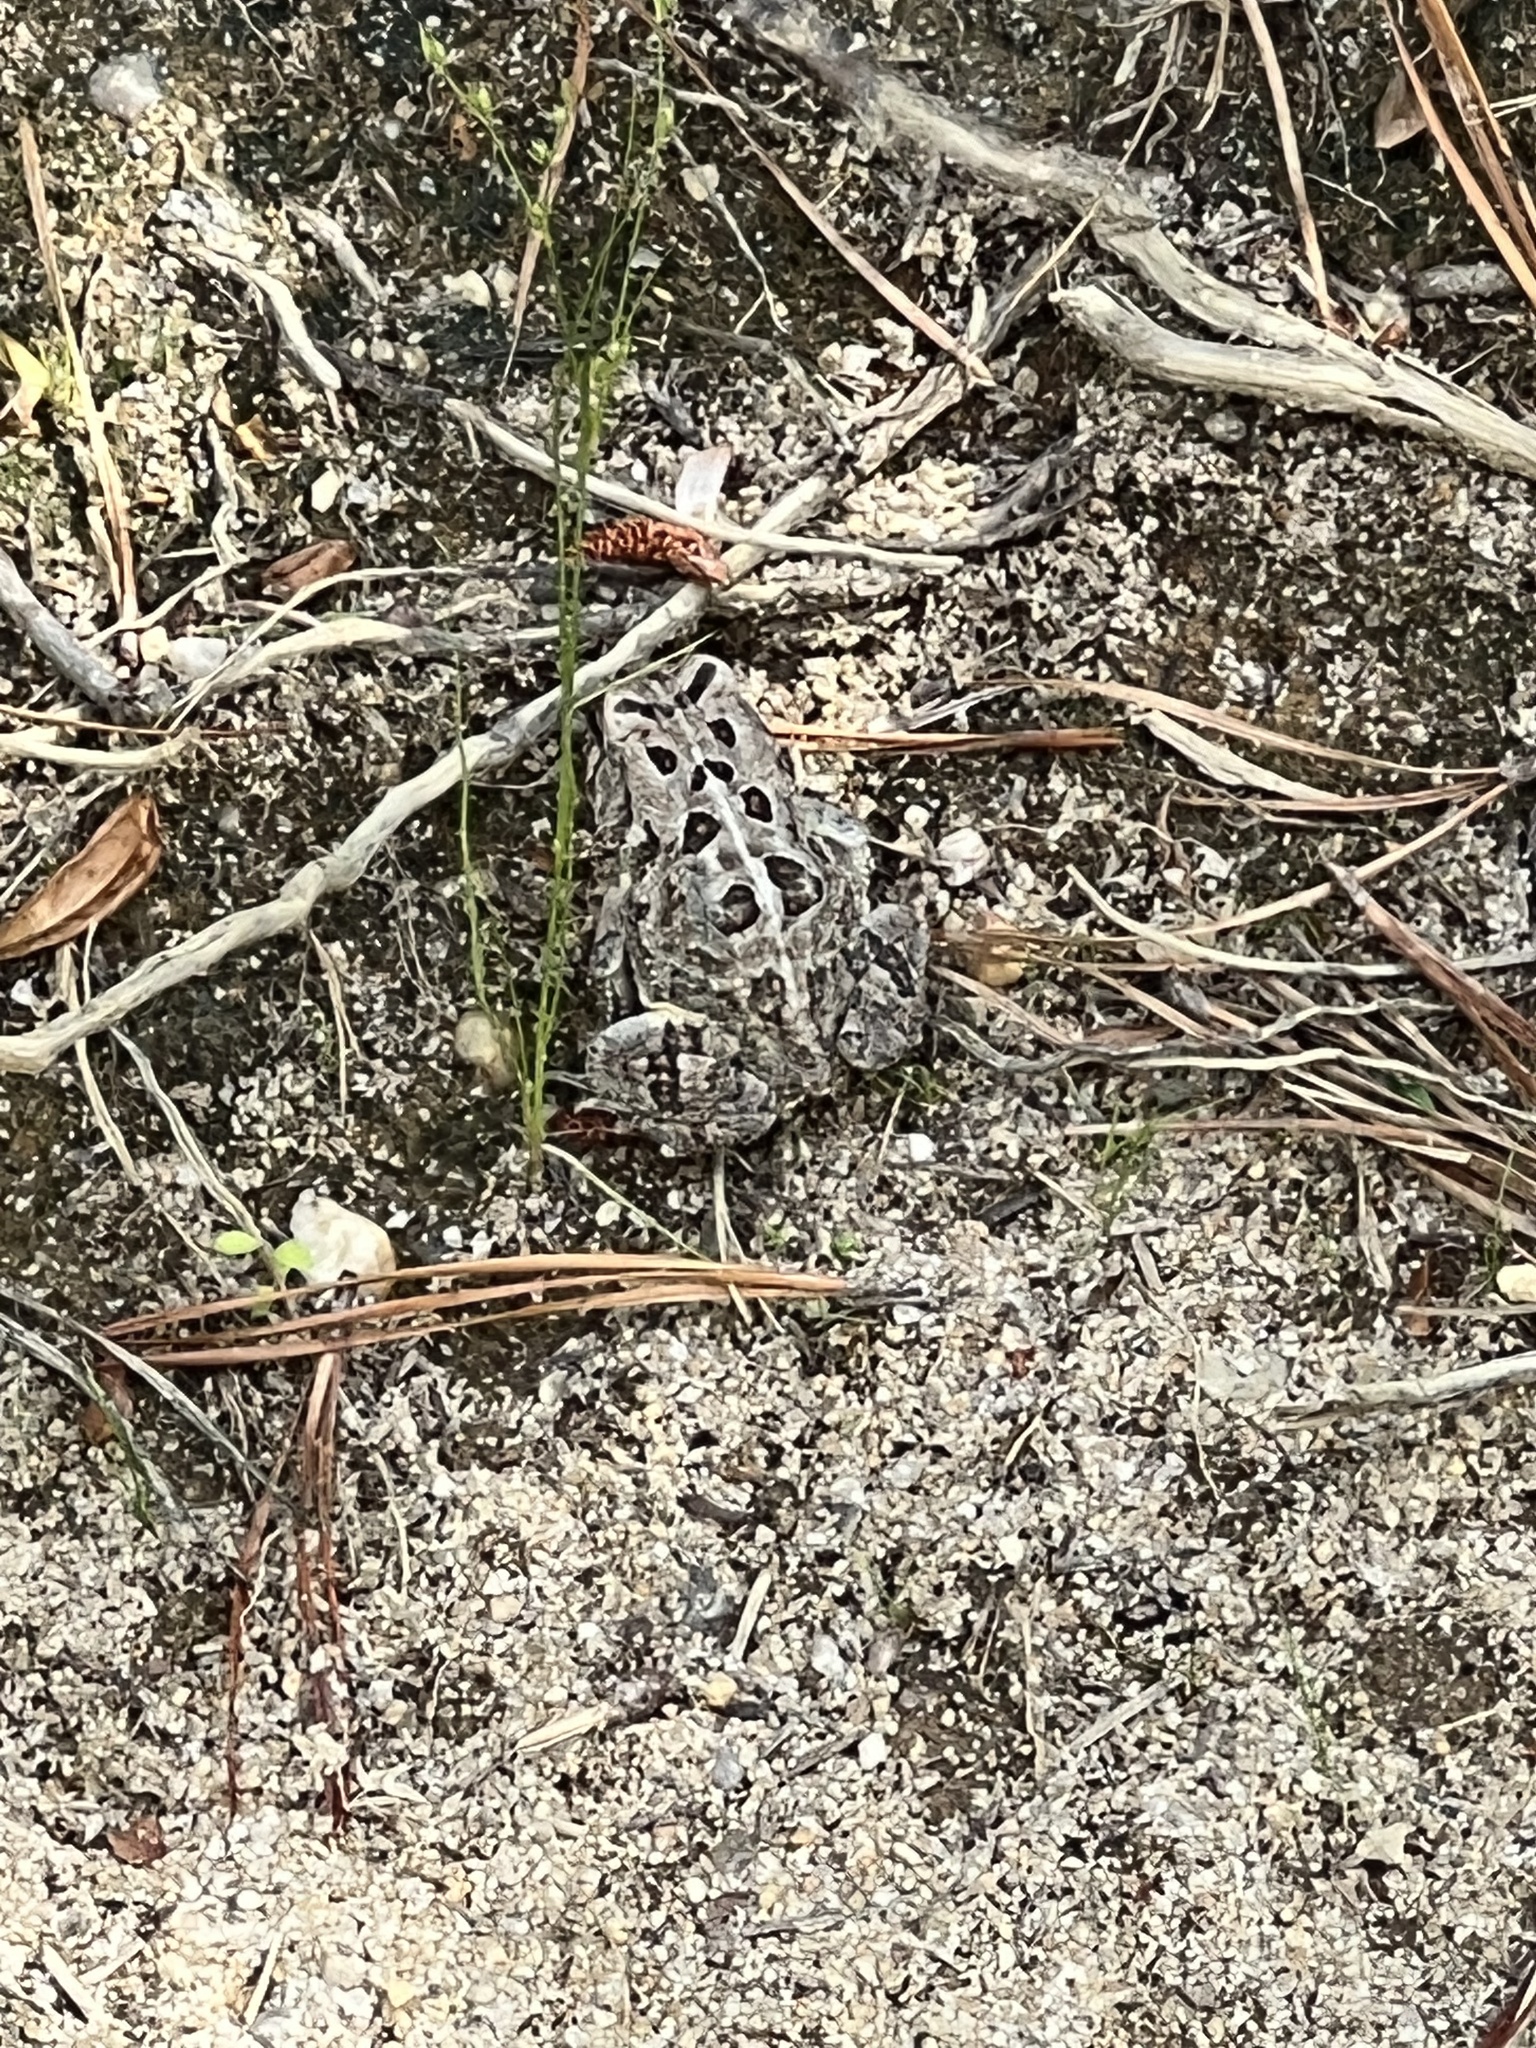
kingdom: Animalia
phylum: Chordata
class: Amphibia
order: Anura
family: Bufonidae
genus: Anaxyrus
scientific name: Anaxyrus fowleri
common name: Fowler's toad
